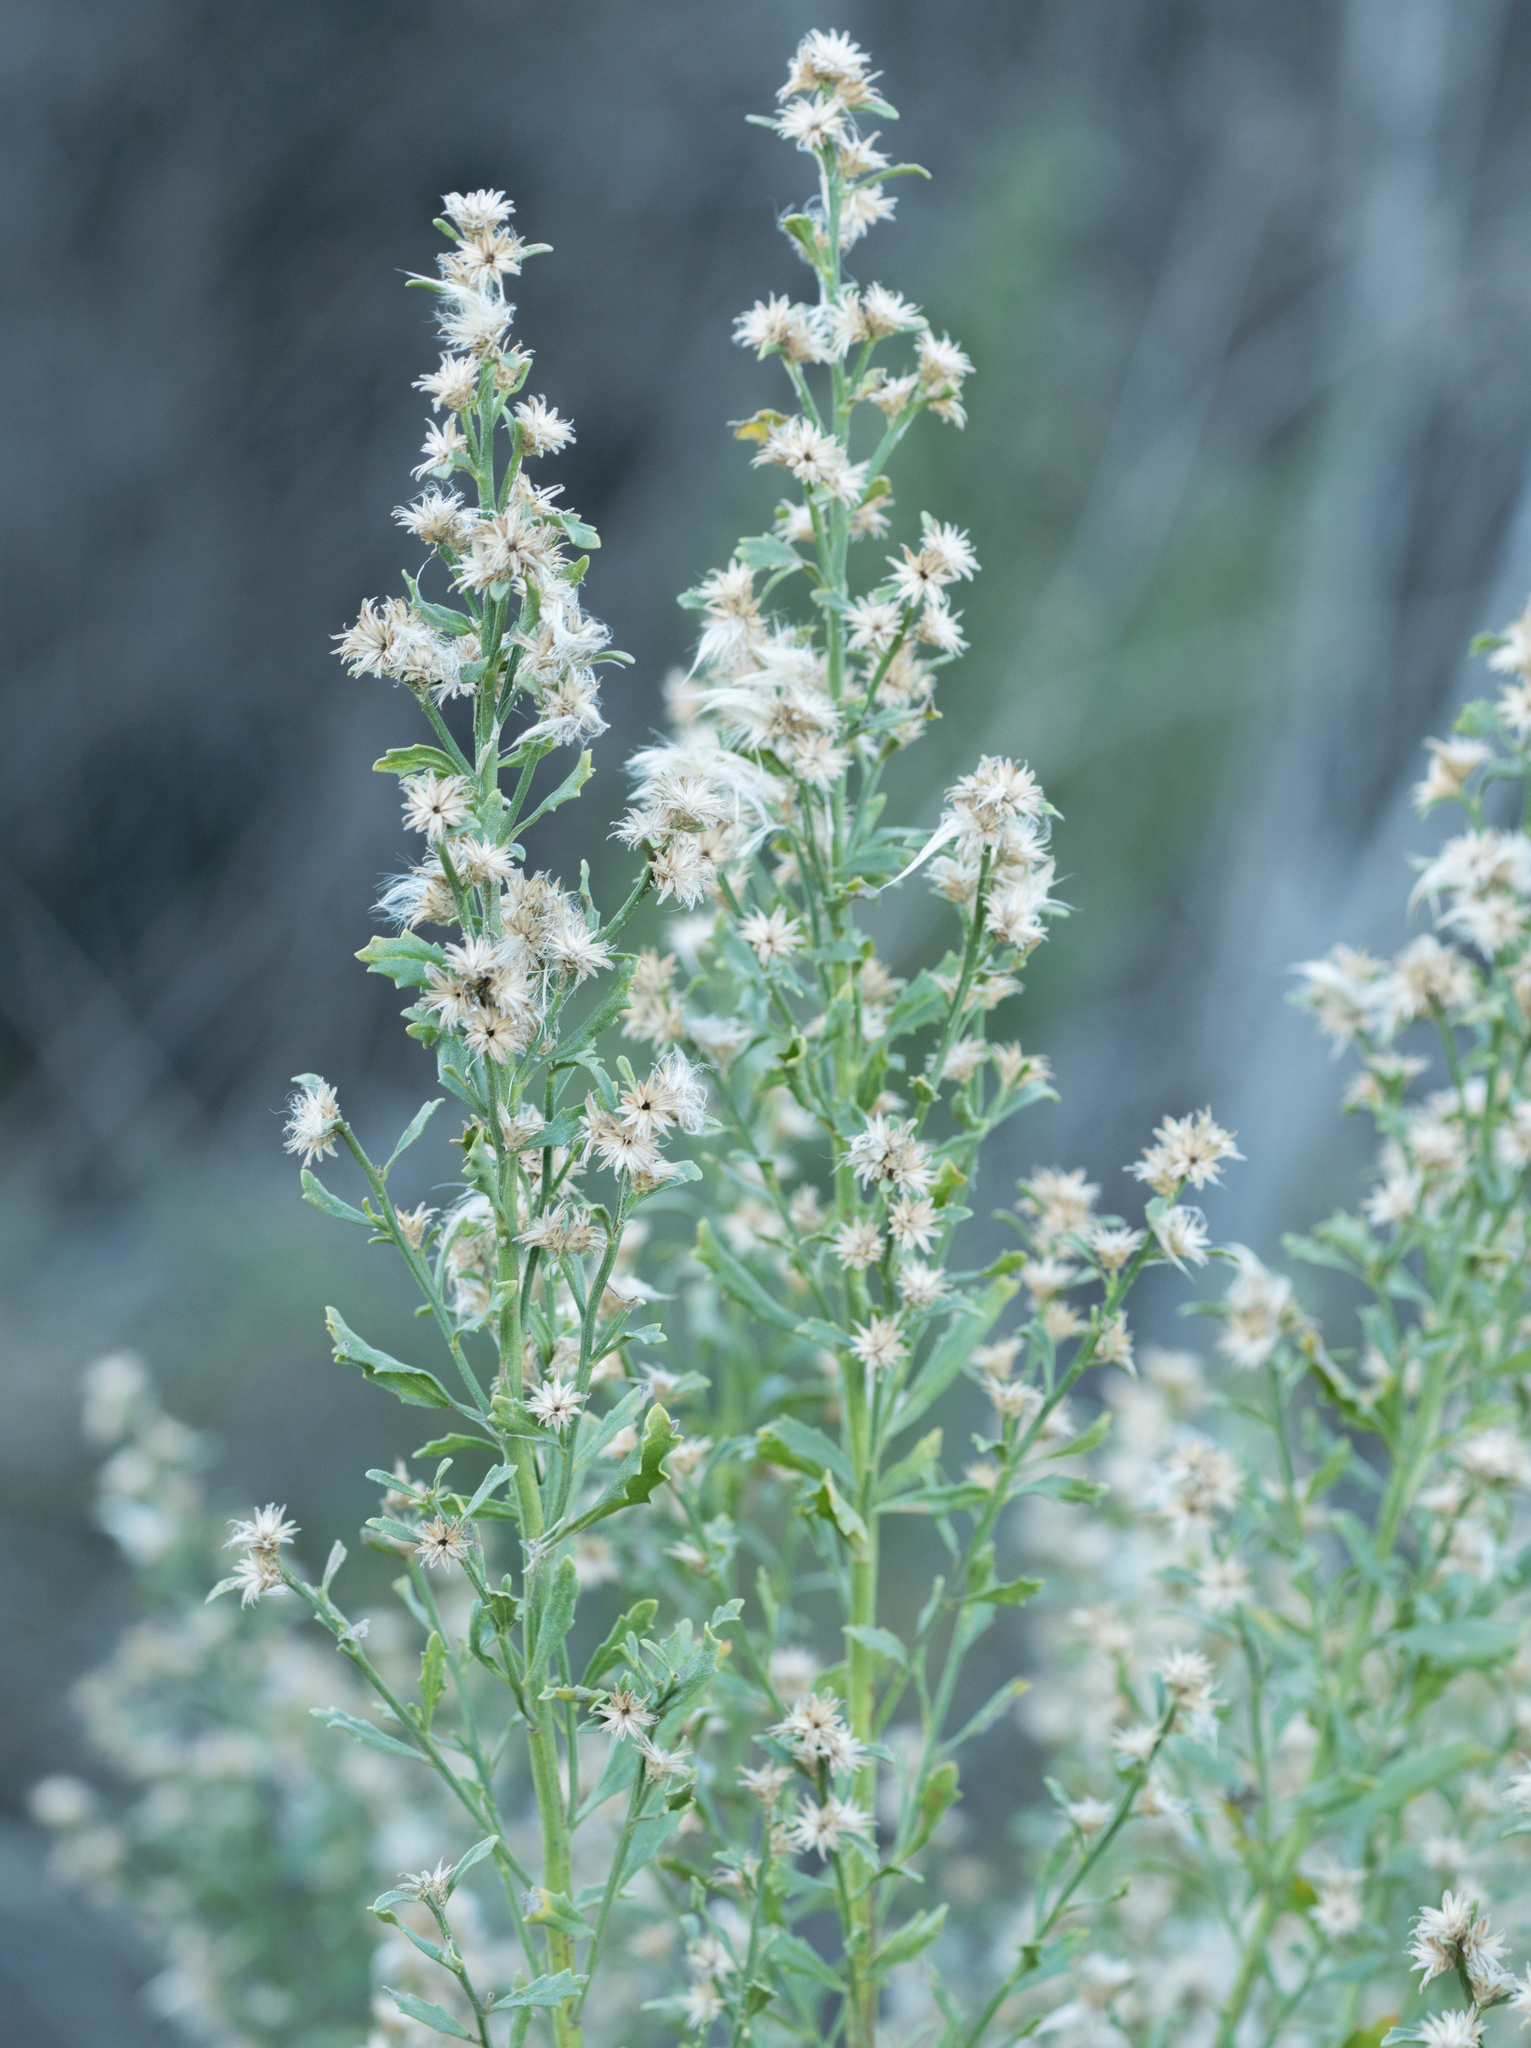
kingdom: Plantae
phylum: Tracheophyta
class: Magnoliopsida
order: Asterales
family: Asteraceae
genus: Baccharis
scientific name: Baccharis pilularis
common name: Coyotebrush
